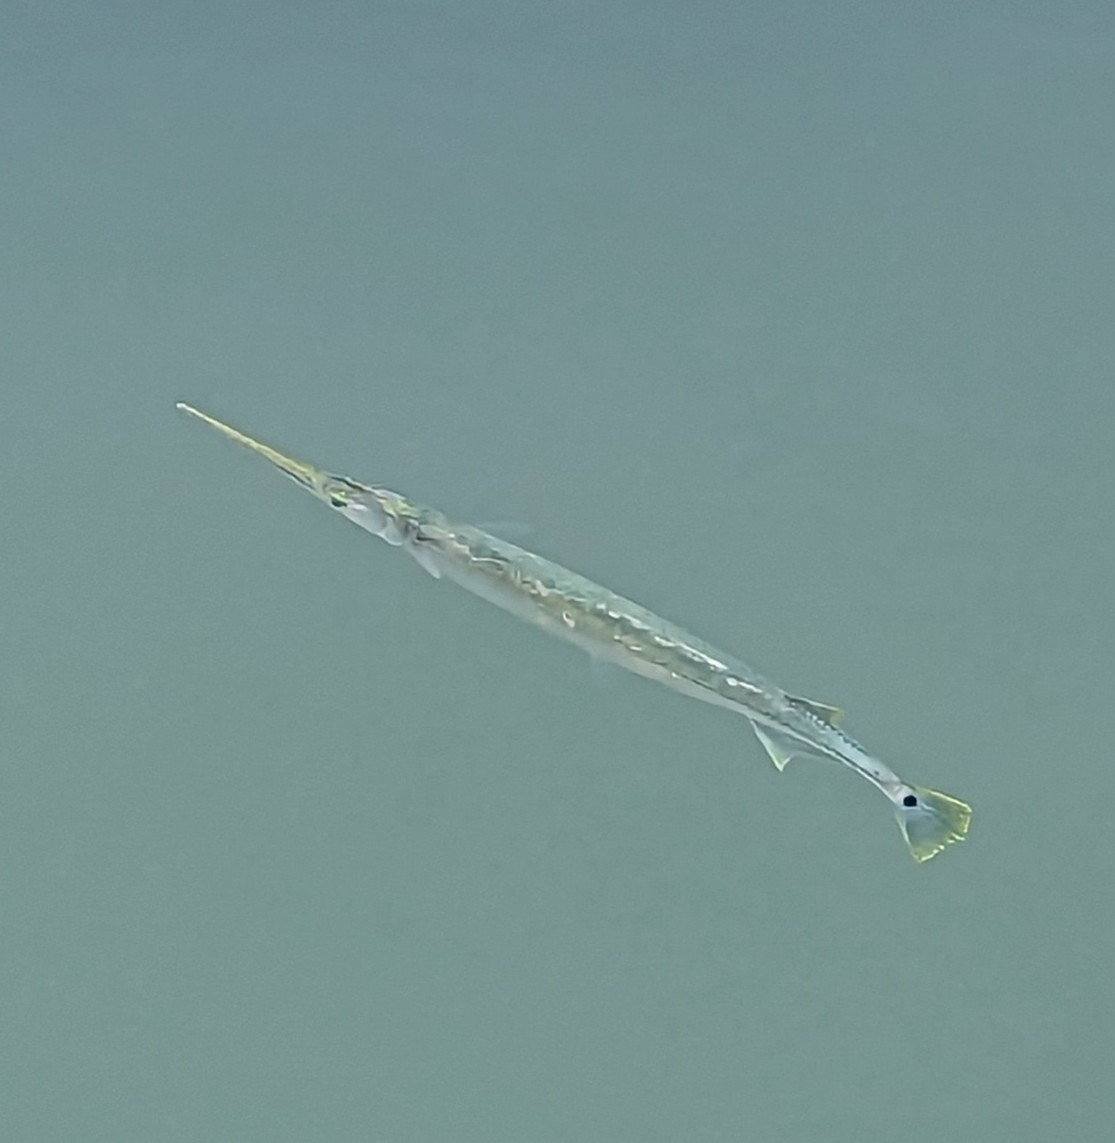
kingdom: Animalia
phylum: Chordata
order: Beloniformes
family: Belonidae
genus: Strongylura
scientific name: Strongylura strongylura
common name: Spottail needlefish
